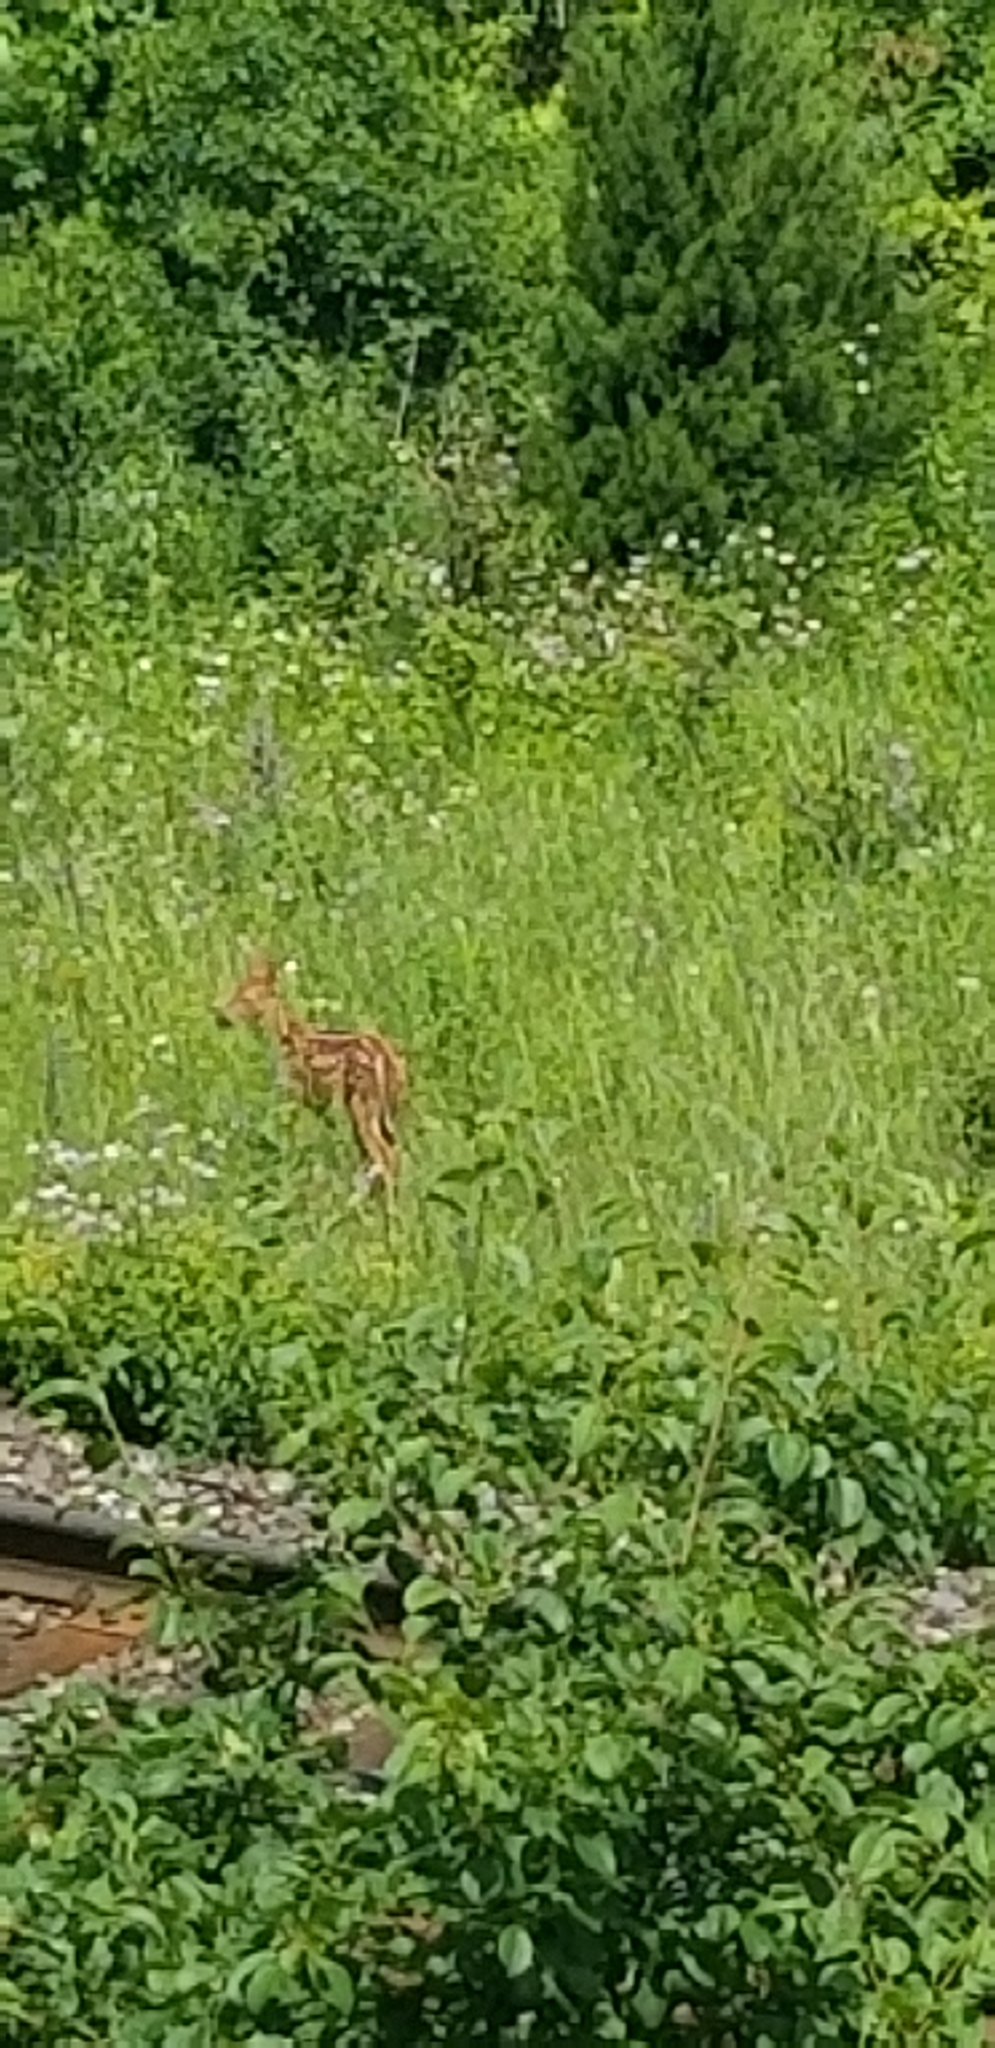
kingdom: Animalia
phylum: Chordata
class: Mammalia
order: Artiodactyla
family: Cervidae
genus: Odocoileus
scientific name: Odocoileus virginianus
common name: White-tailed deer
